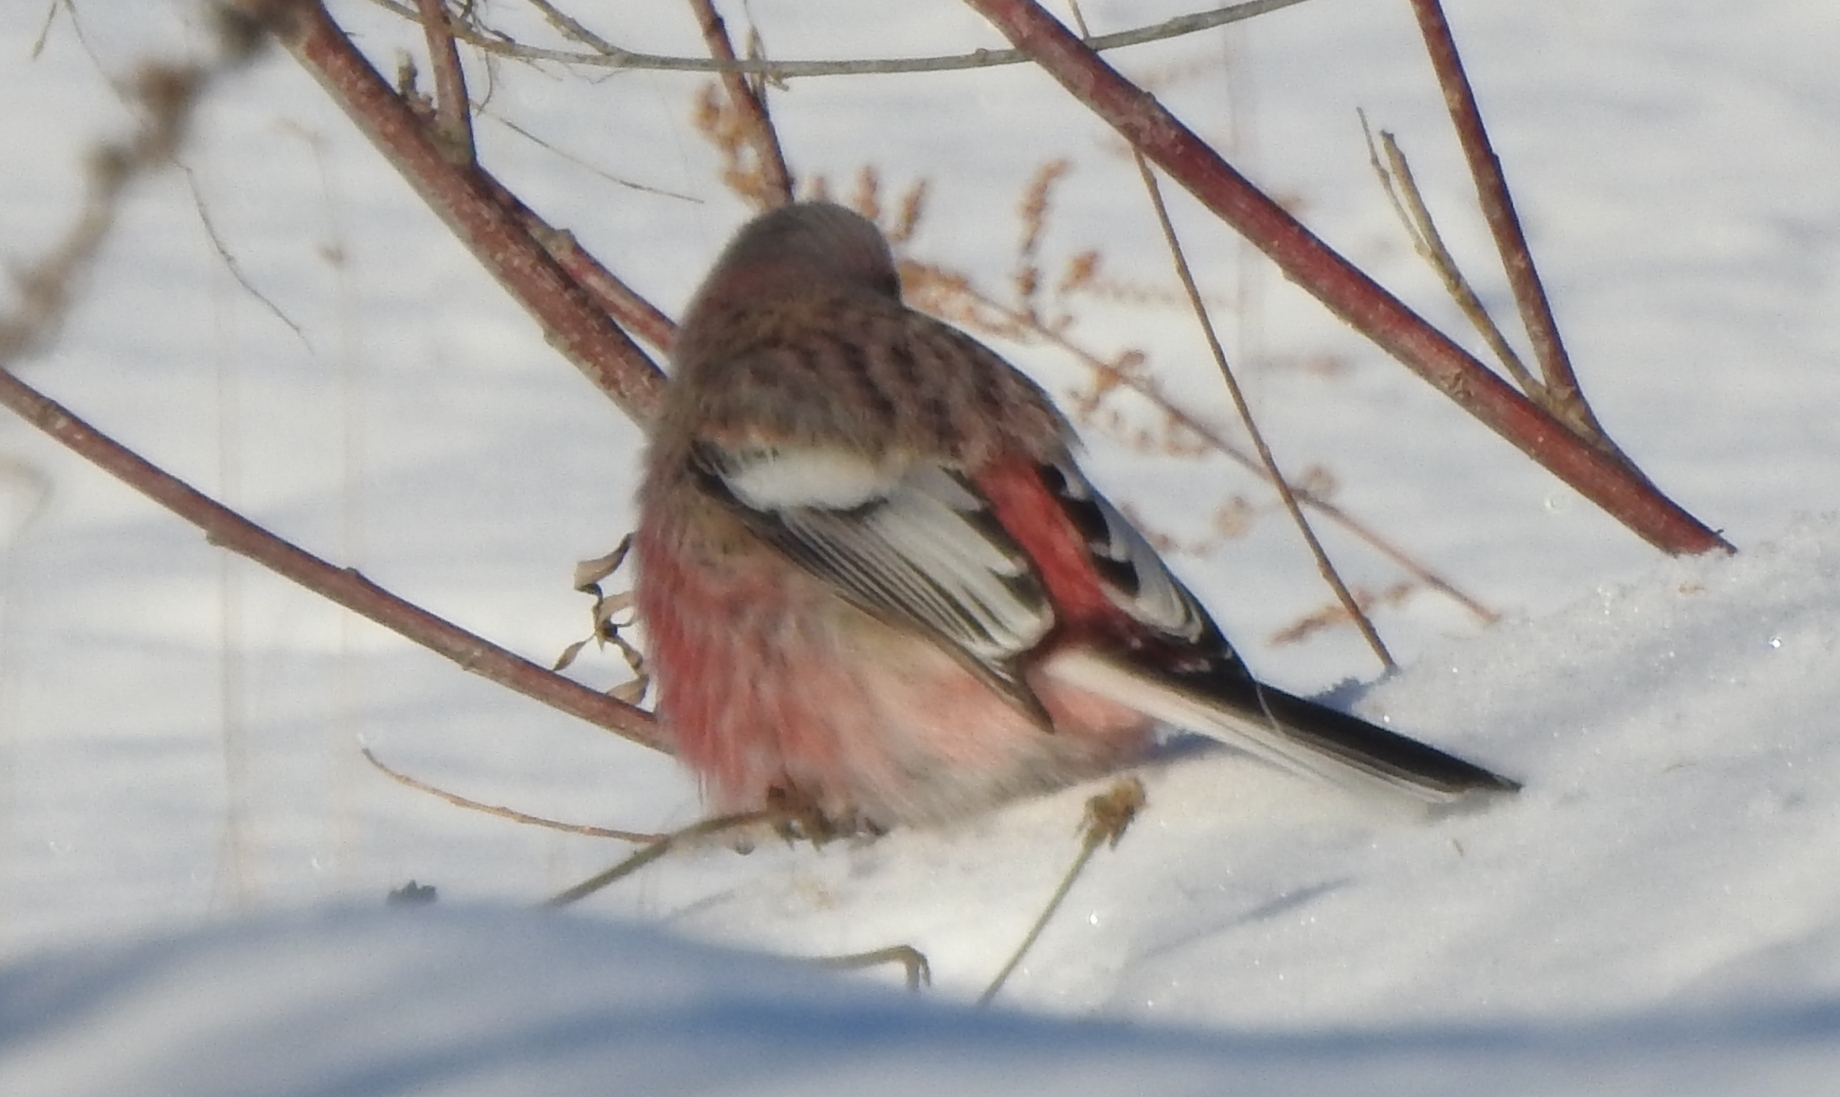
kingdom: Animalia
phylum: Chordata
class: Aves
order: Passeriformes
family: Fringillidae
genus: Carpodacus
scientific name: Carpodacus sibiricus
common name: Long-tailed rosefinch
